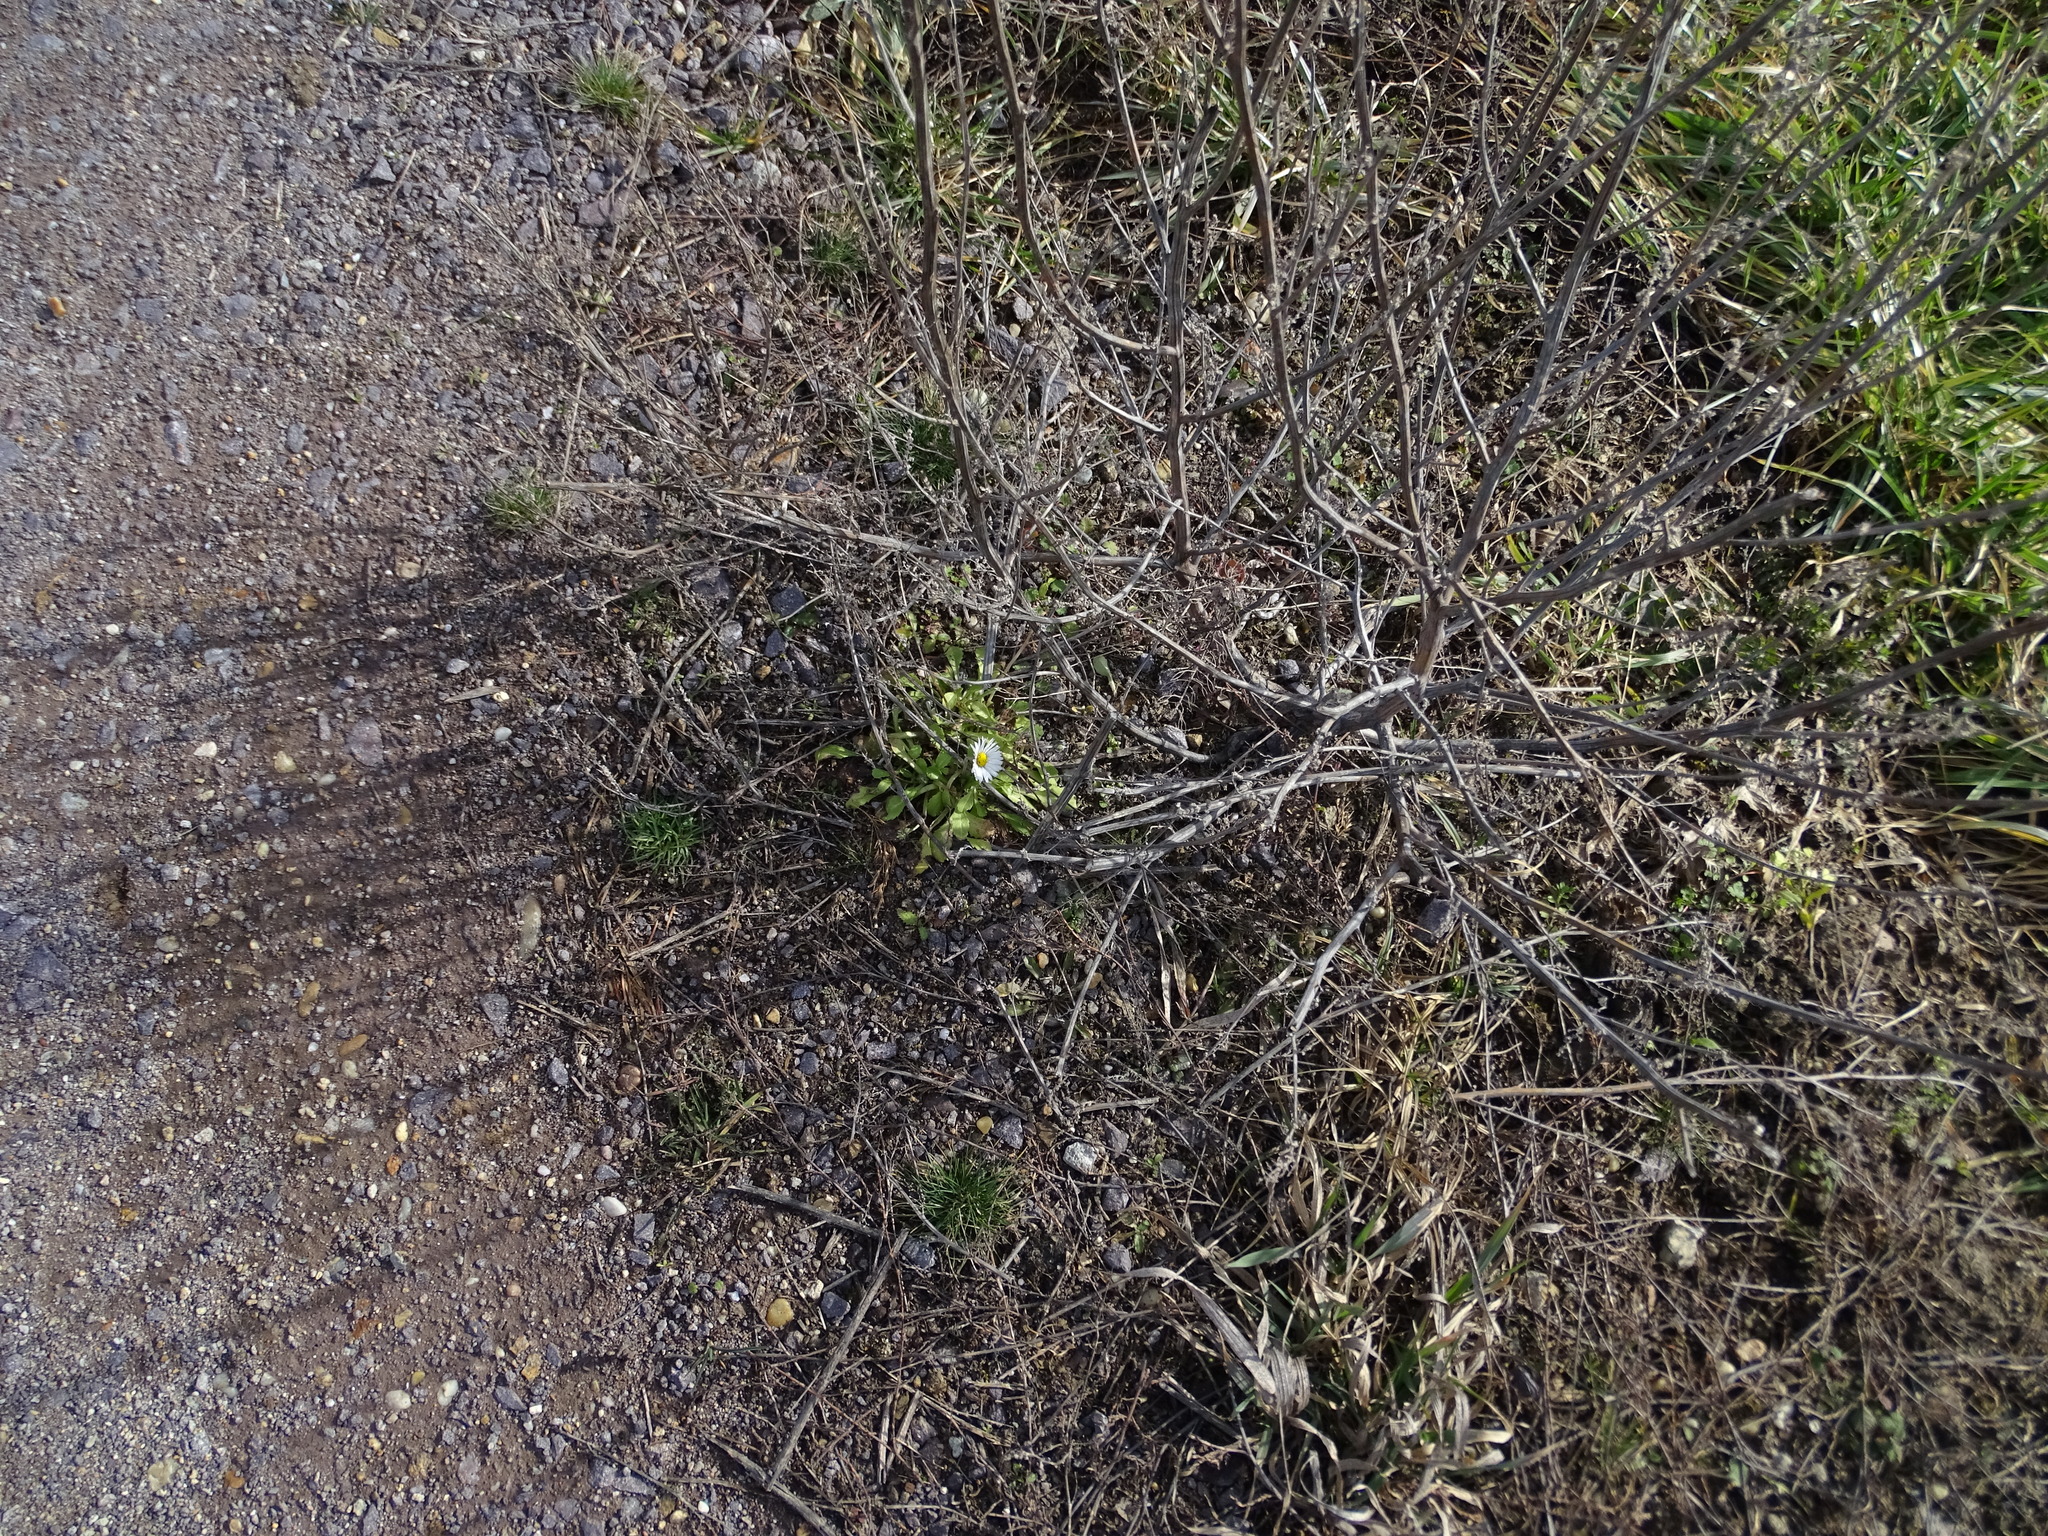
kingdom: Plantae
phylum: Tracheophyta
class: Magnoliopsida
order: Asterales
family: Asteraceae
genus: Bellis
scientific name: Bellis perennis
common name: Lawndaisy
